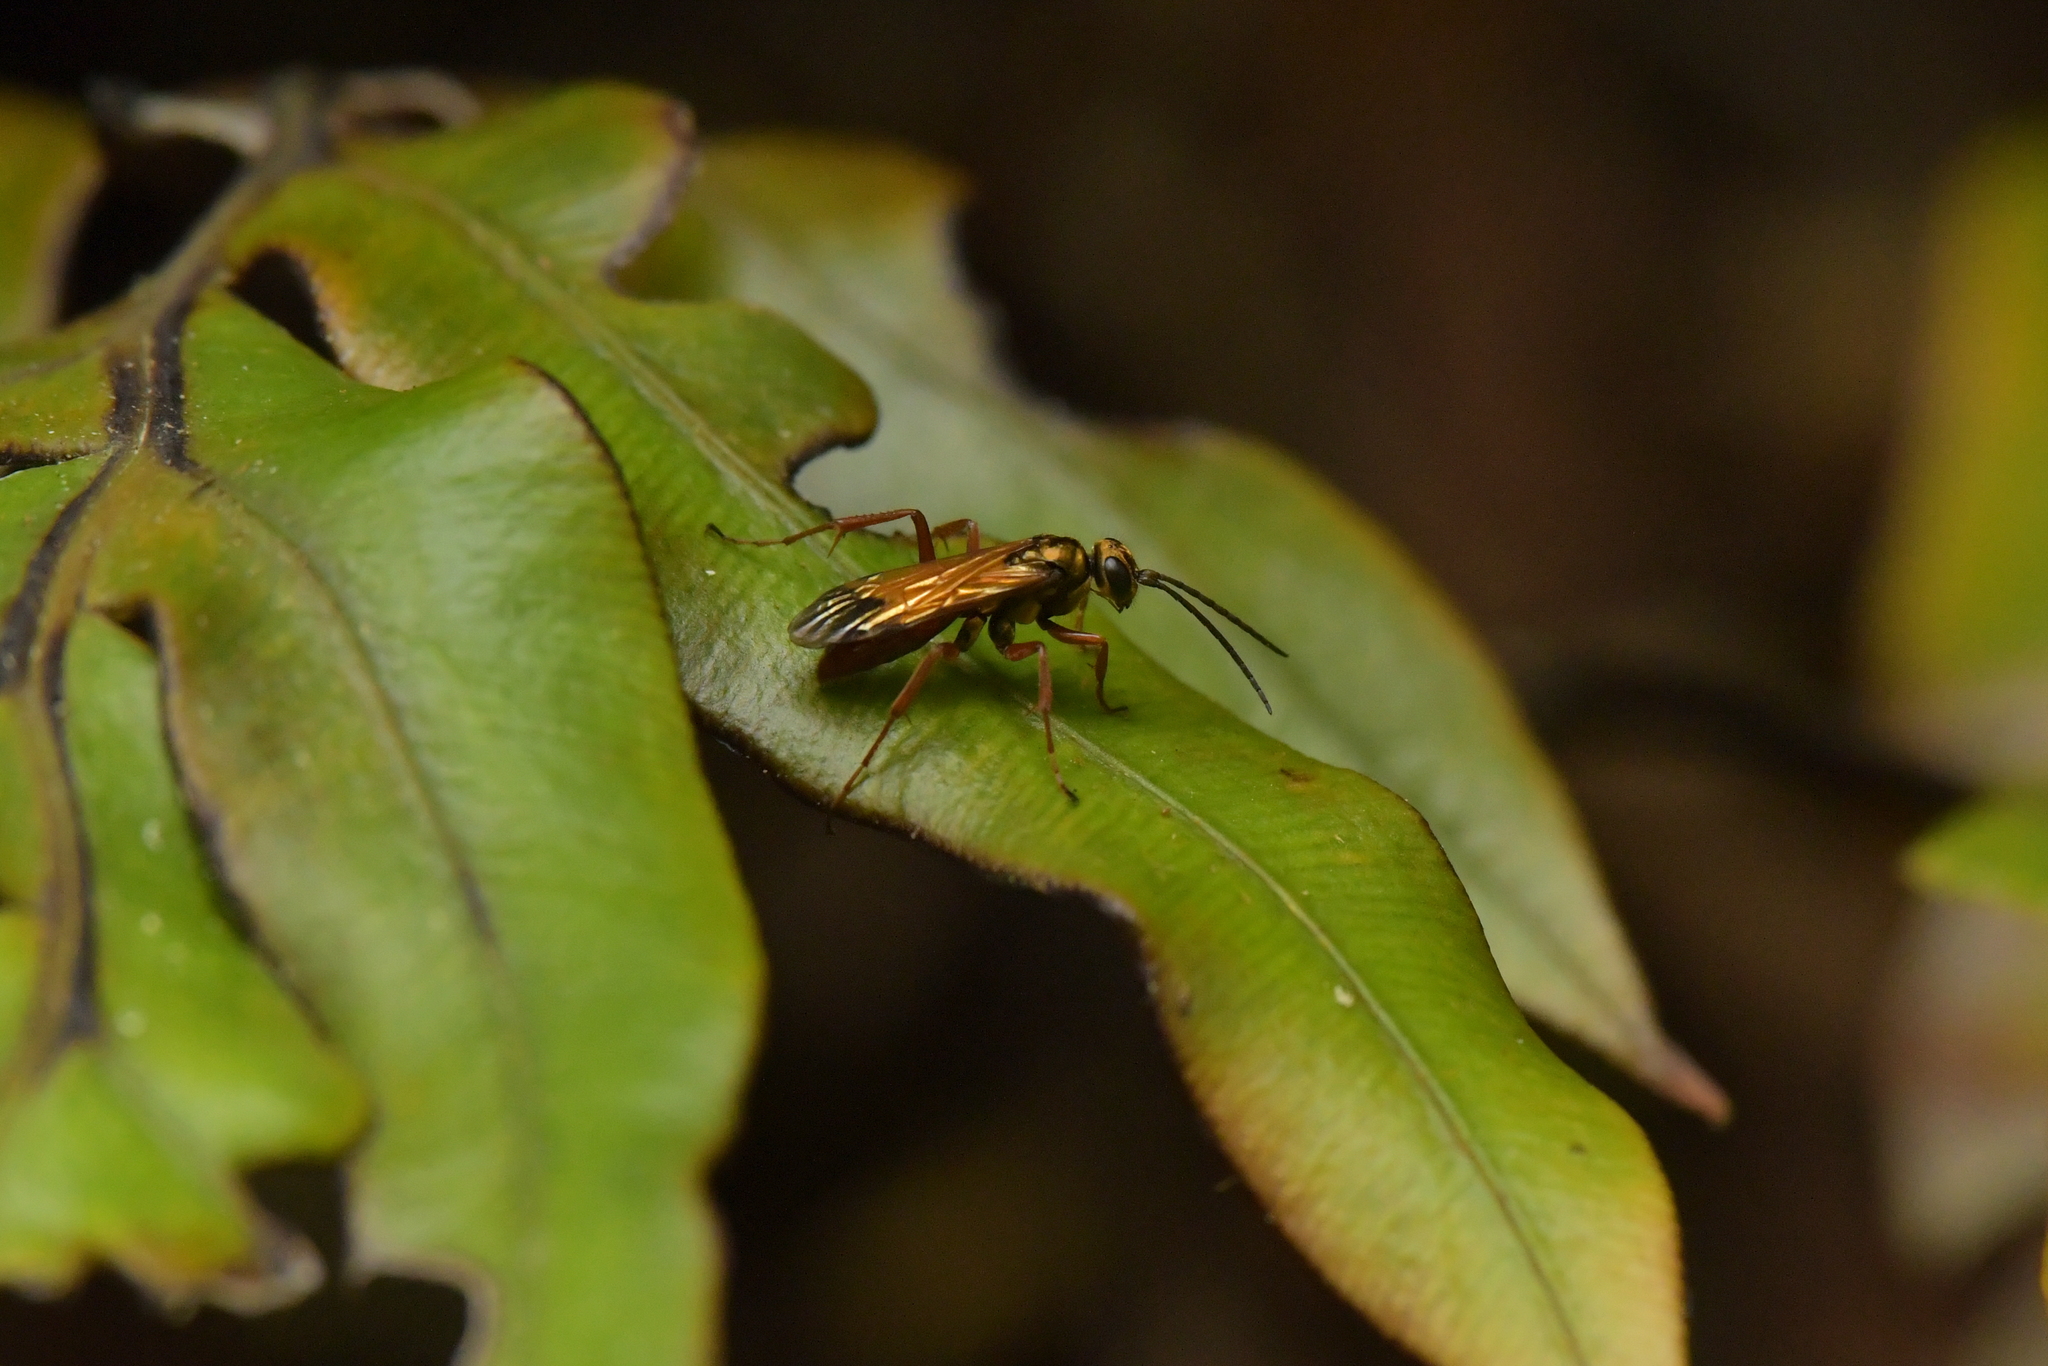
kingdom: Animalia
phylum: Arthropoda
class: Insecta
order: Hymenoptera
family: Pompilidae
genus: Sphictostethus
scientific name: Sphictostethus fugax
